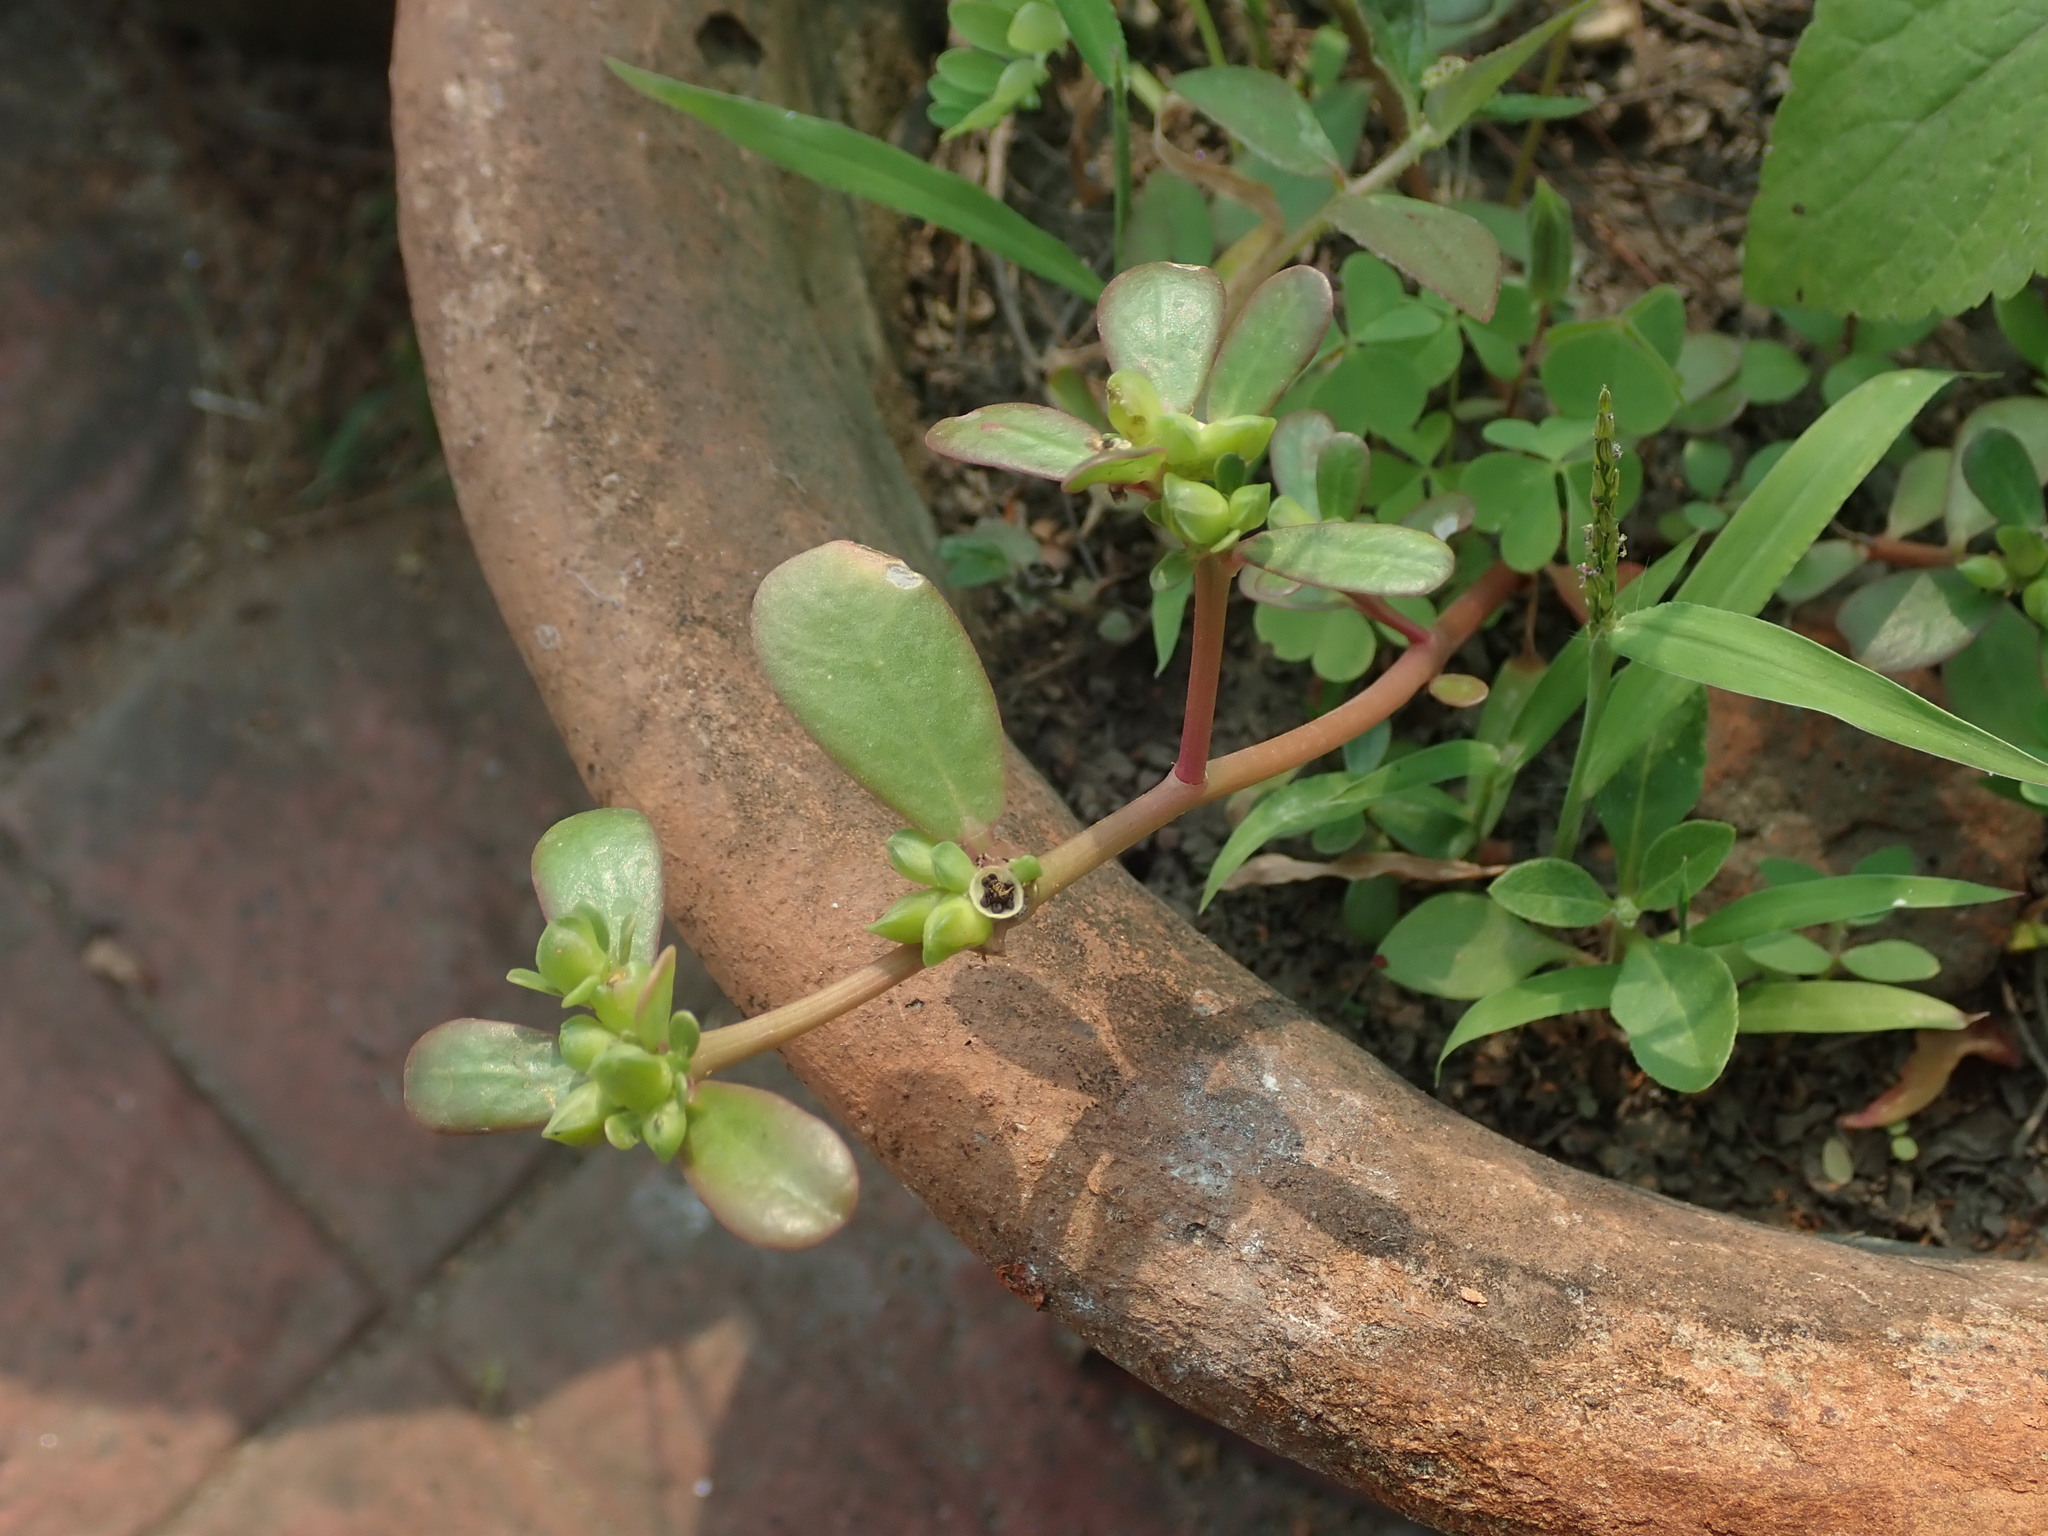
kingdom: Plantae
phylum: Tracheophyta
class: Magnoliopsida
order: Caryophyllales
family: Portulacaceae
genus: Portulaca
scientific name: Portulaca oleracea
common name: Common purslane
